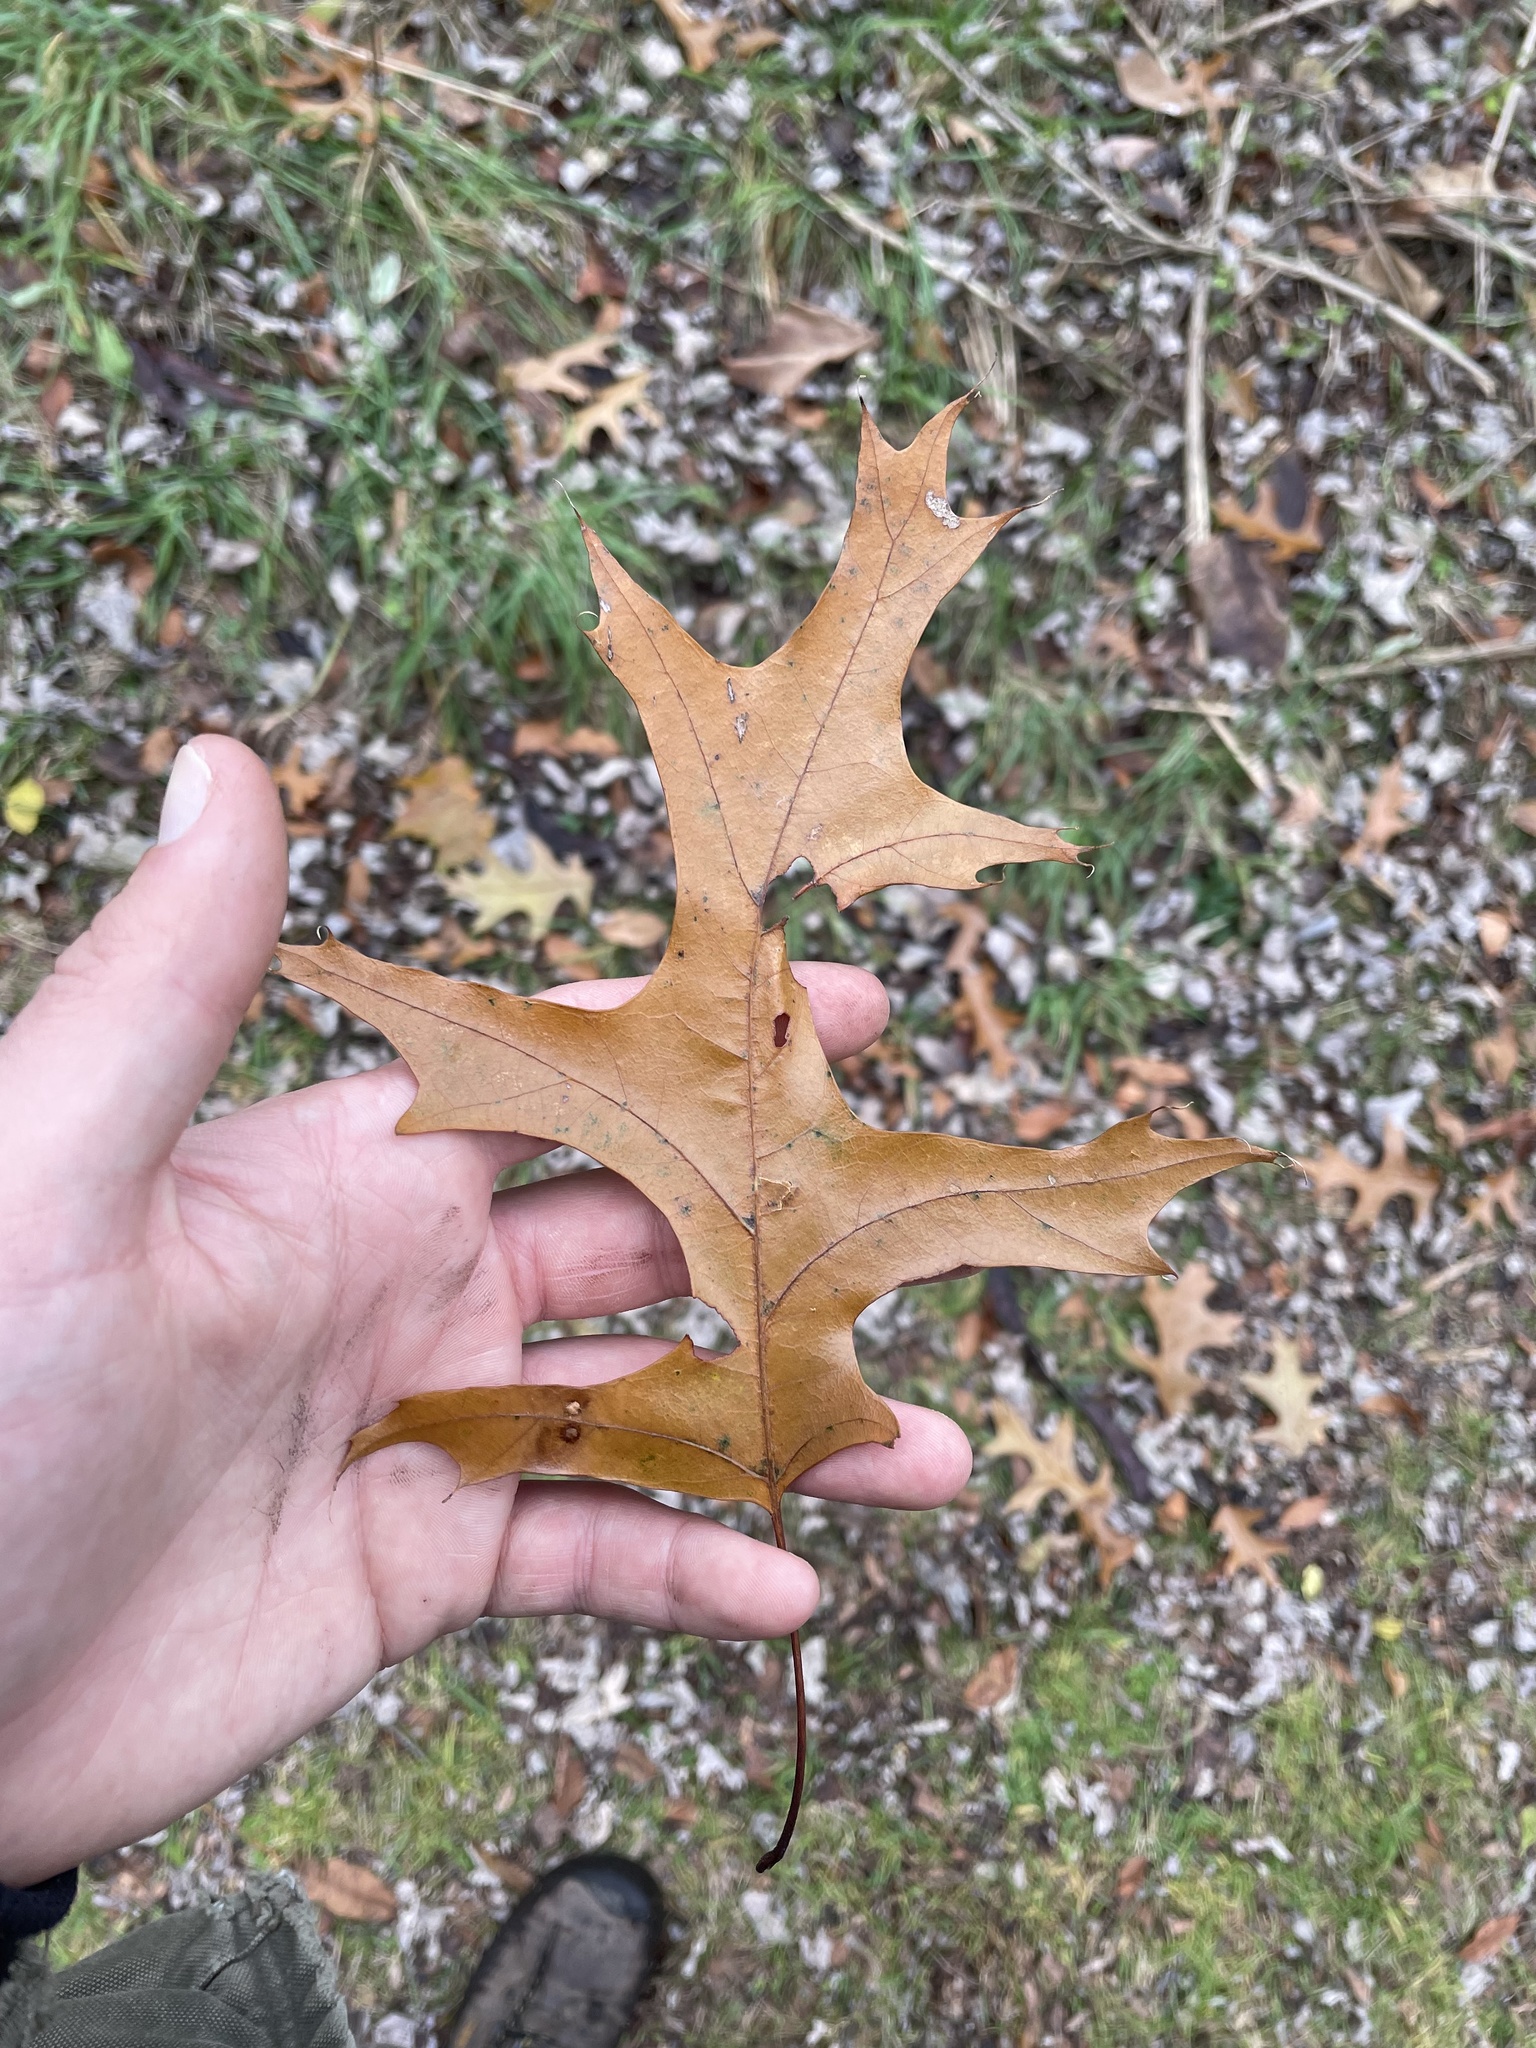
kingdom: Plantae
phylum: Tracheophyta
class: Magnoliopsida
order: Fagales
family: Fagaceae
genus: Quercus
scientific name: Quercus palustris
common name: Pin oak
